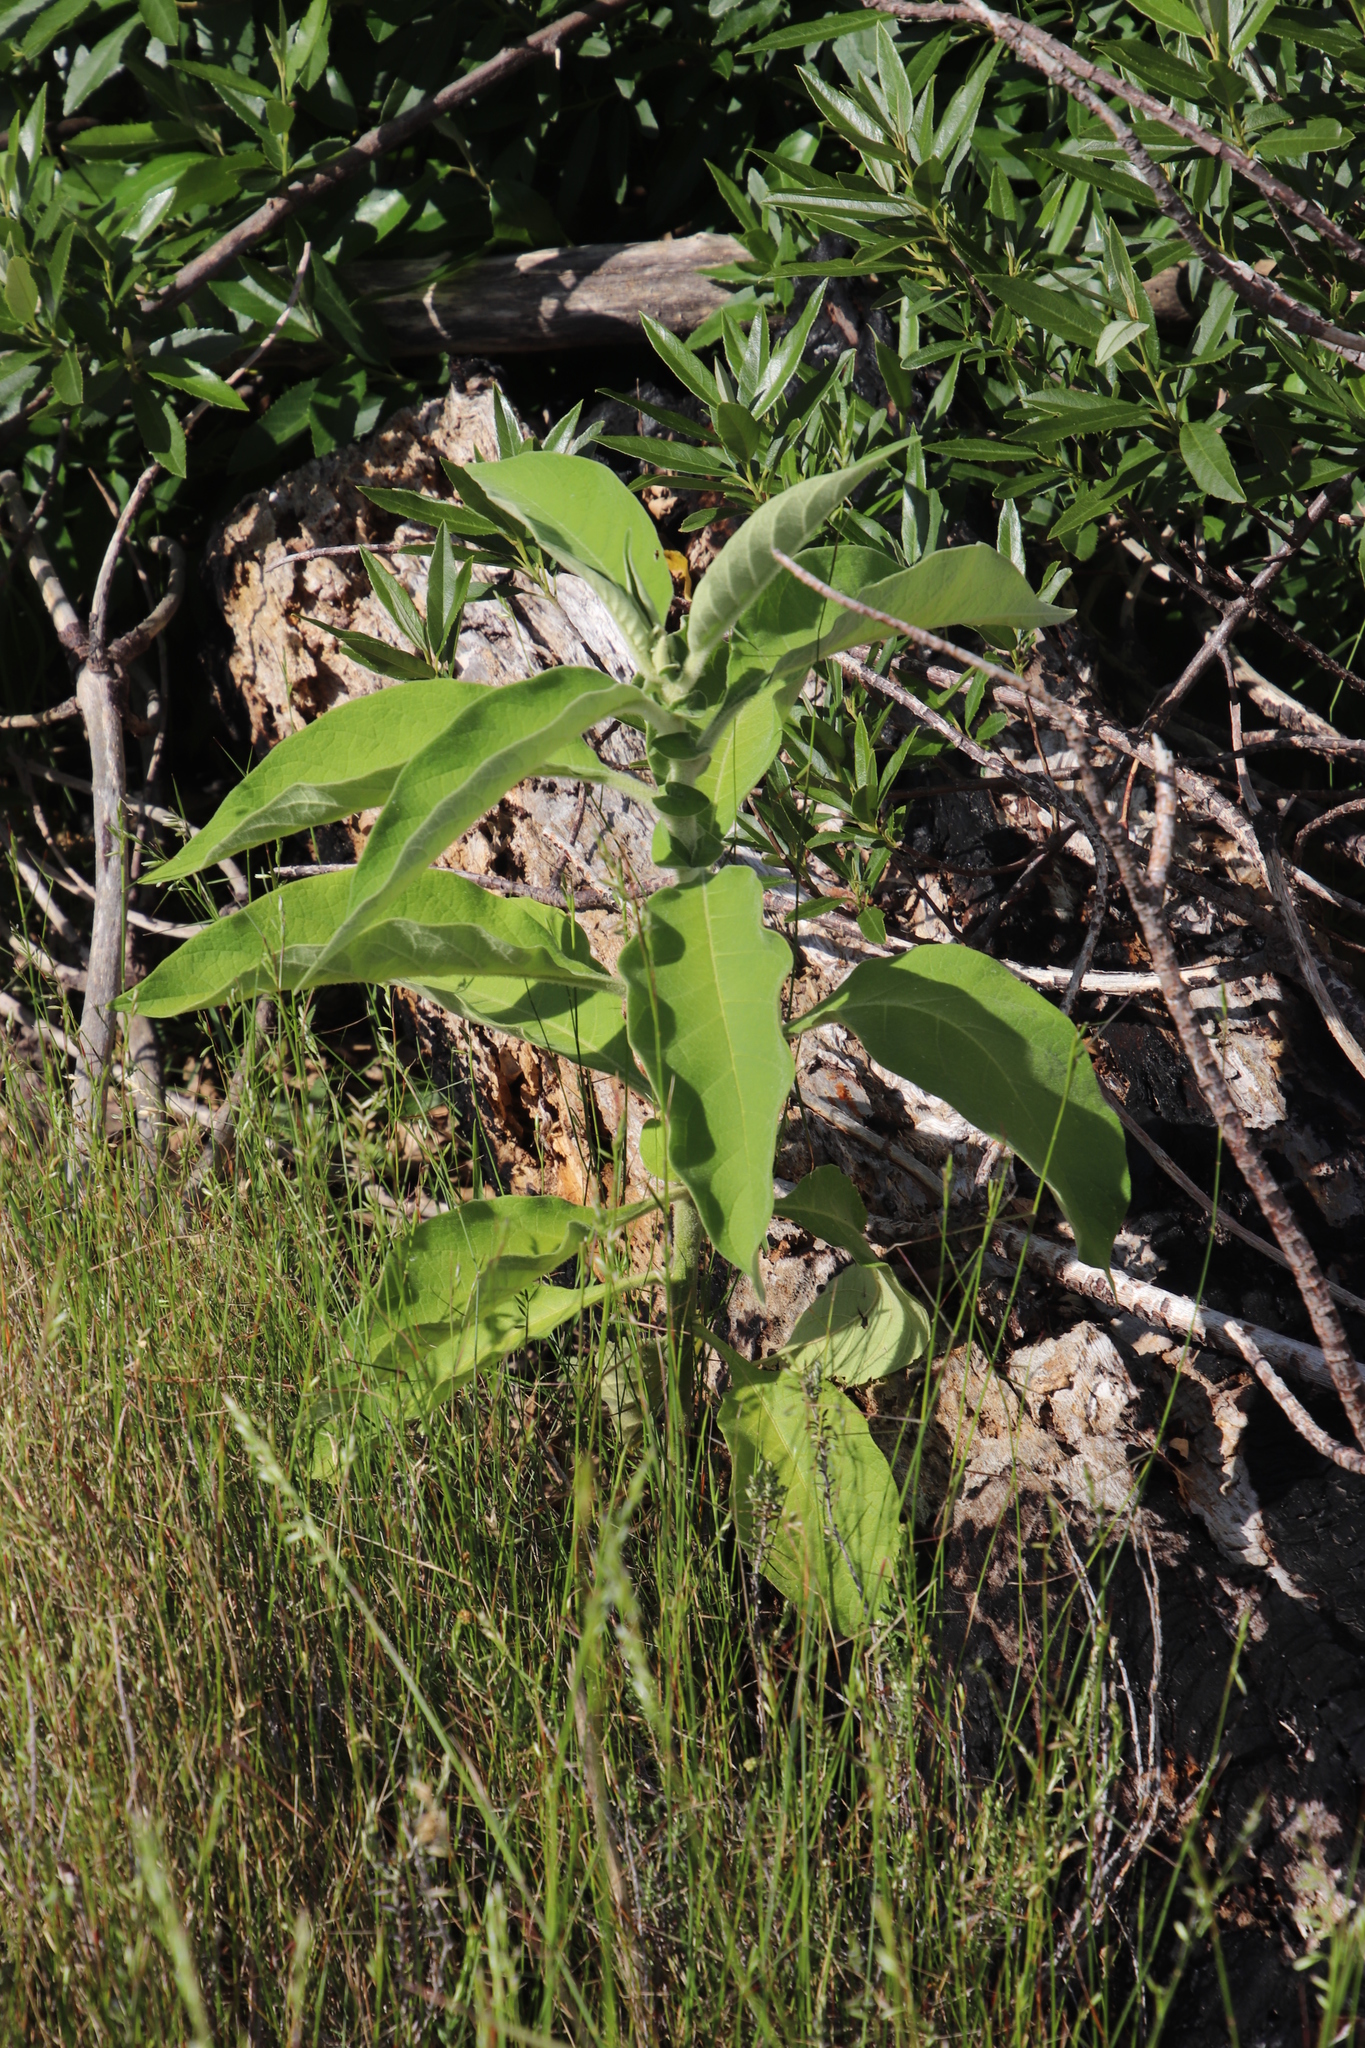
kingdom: Plantae
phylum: Tracheophyta
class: Magnoliopsida
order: Solanales
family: Solanaceae
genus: Solanum
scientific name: Solanum mauritianum
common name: Earleaf nightshade
